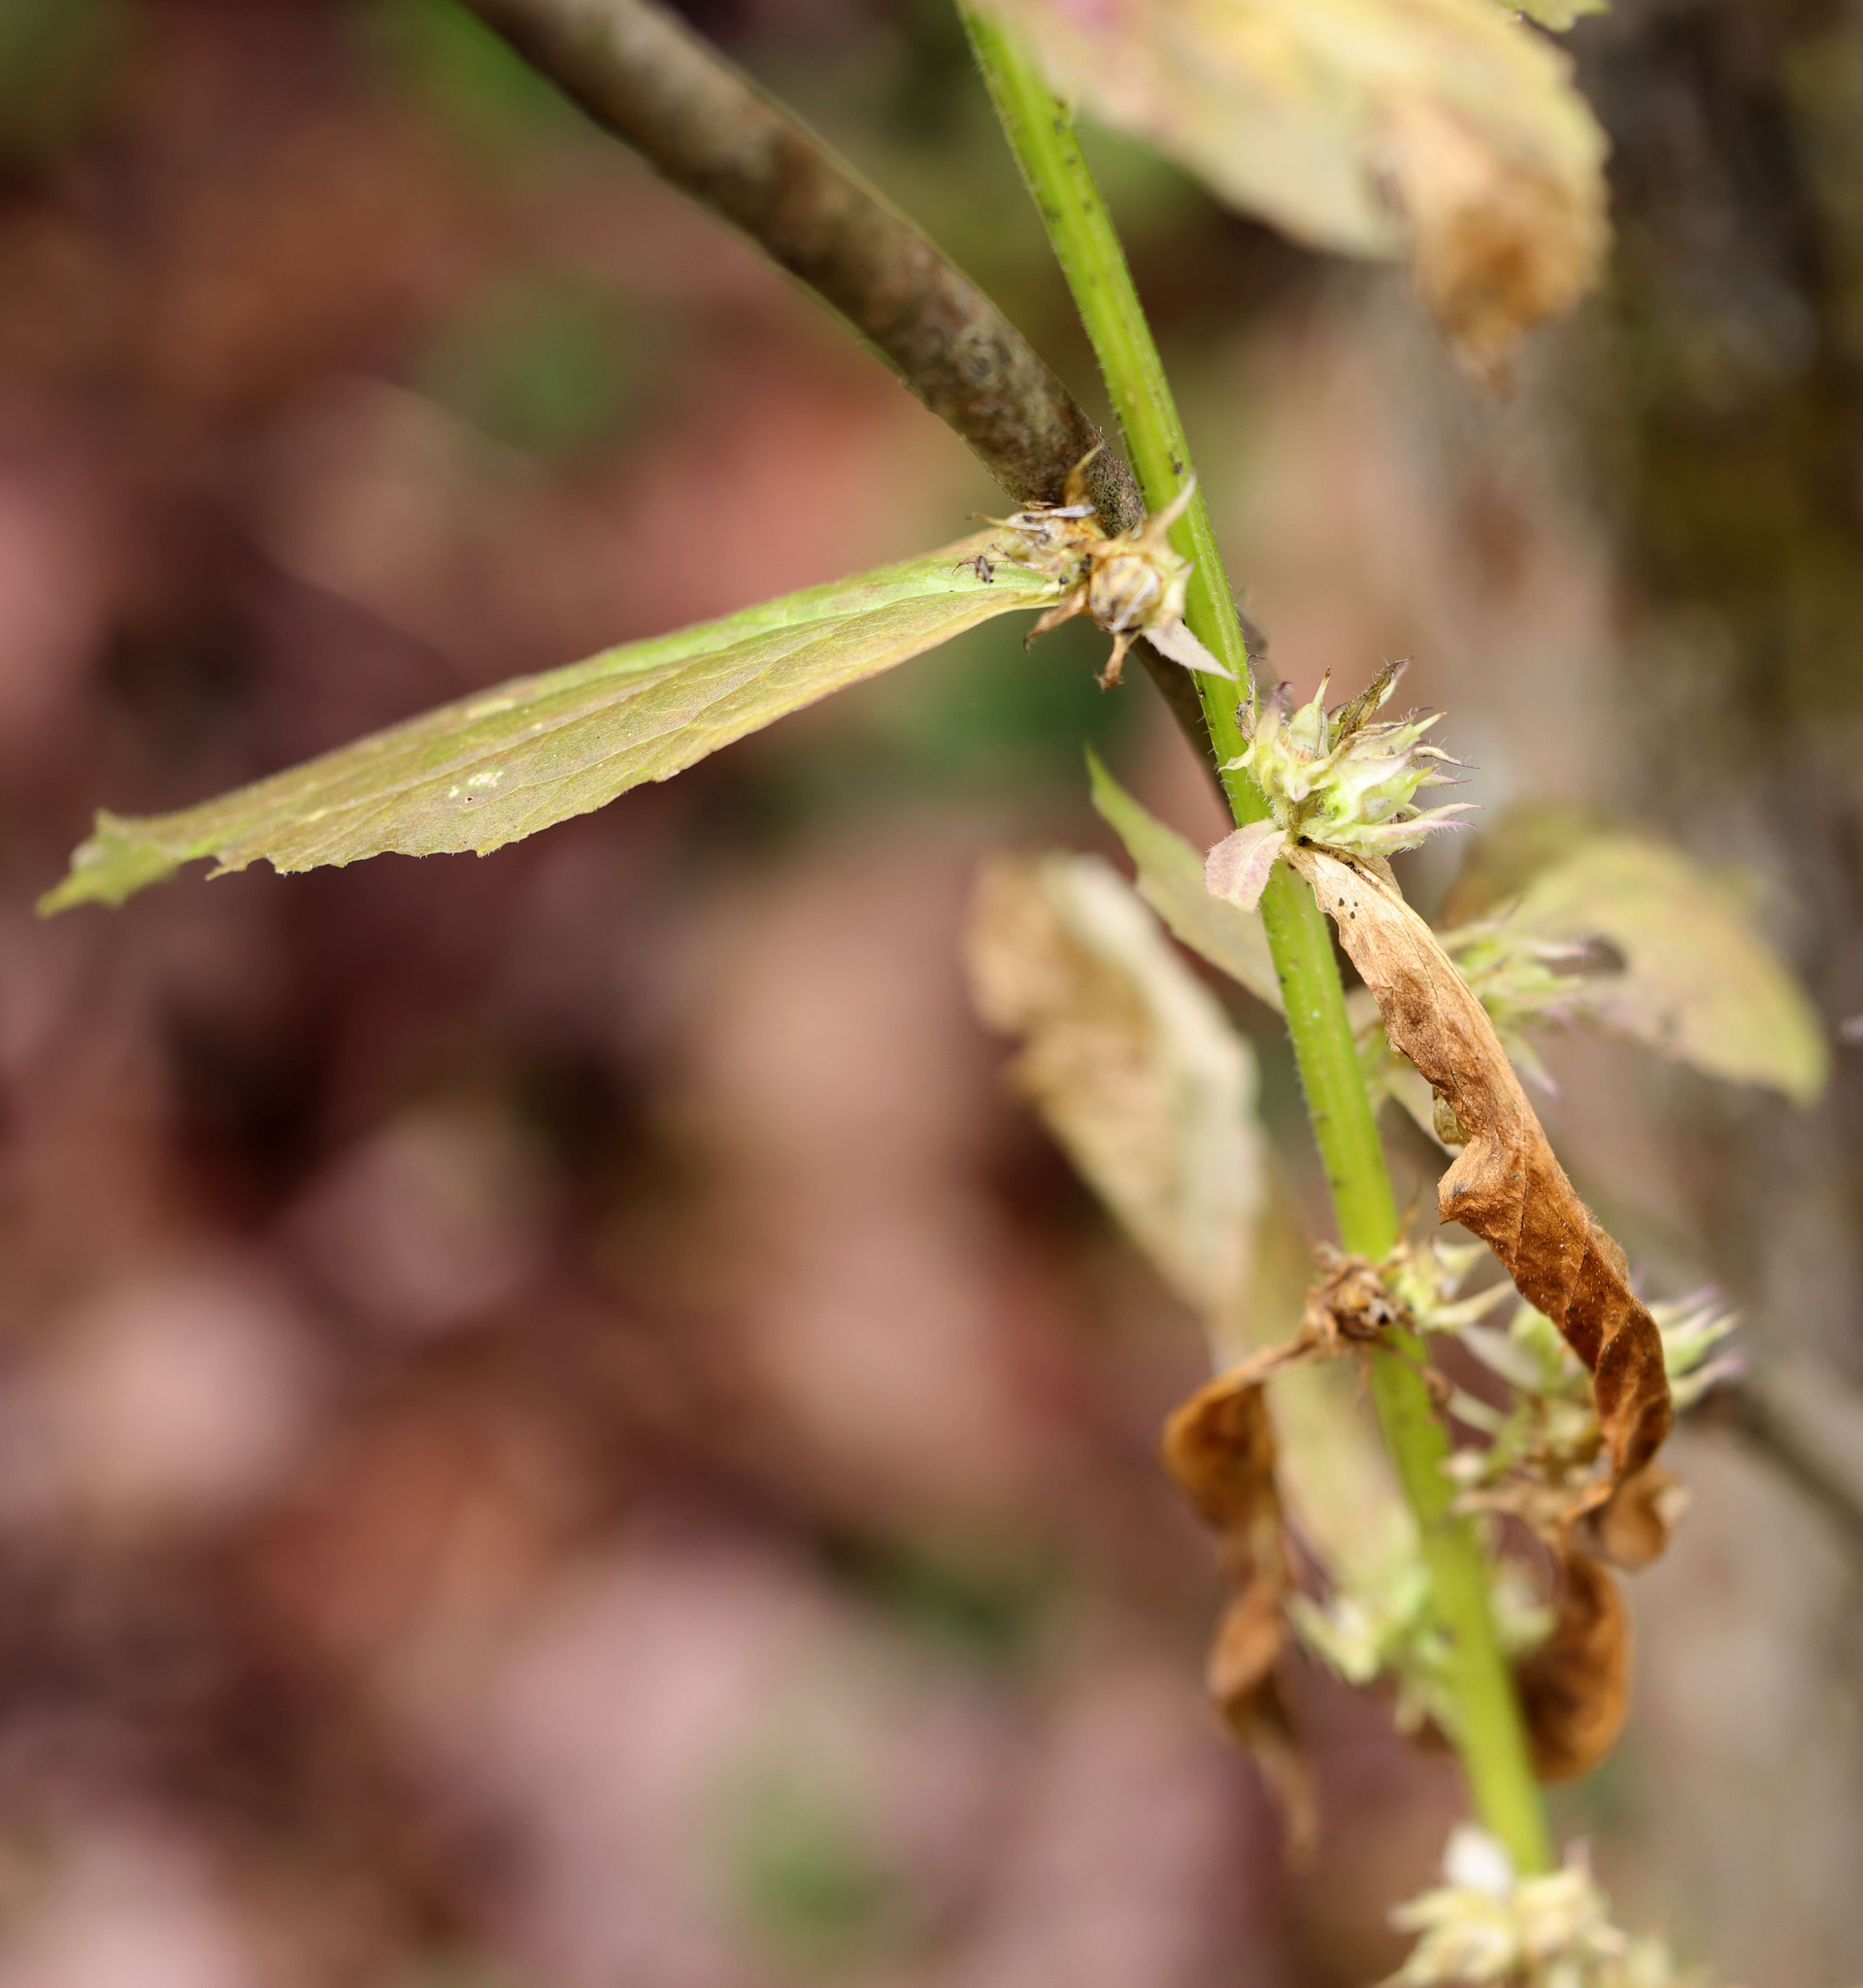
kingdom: Plantae
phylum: Tracheophyta
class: Magnoliopsida
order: Asterales
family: Campanulaceae
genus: Lobelia
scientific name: Lobelia siphilitica
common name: Great lobelia
